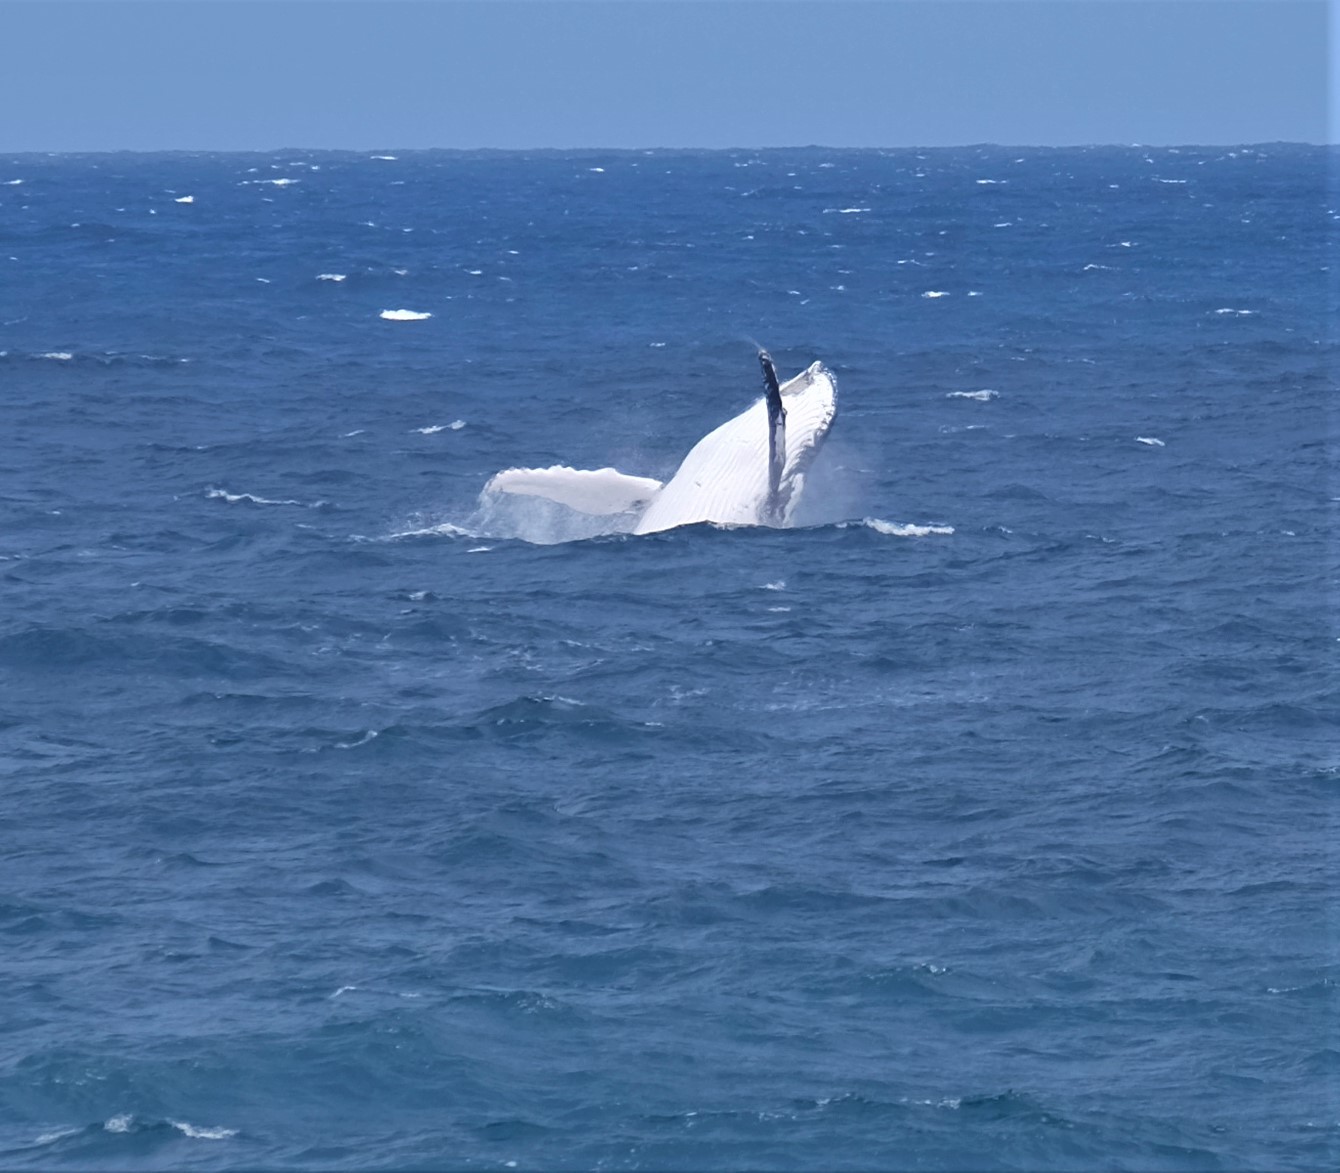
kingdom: Animalia
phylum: Chordata
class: Mammalia
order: Cetacea
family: Balaenopteridae
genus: Megaptera
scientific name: Megaptera novaeangliae
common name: Humpback whale
